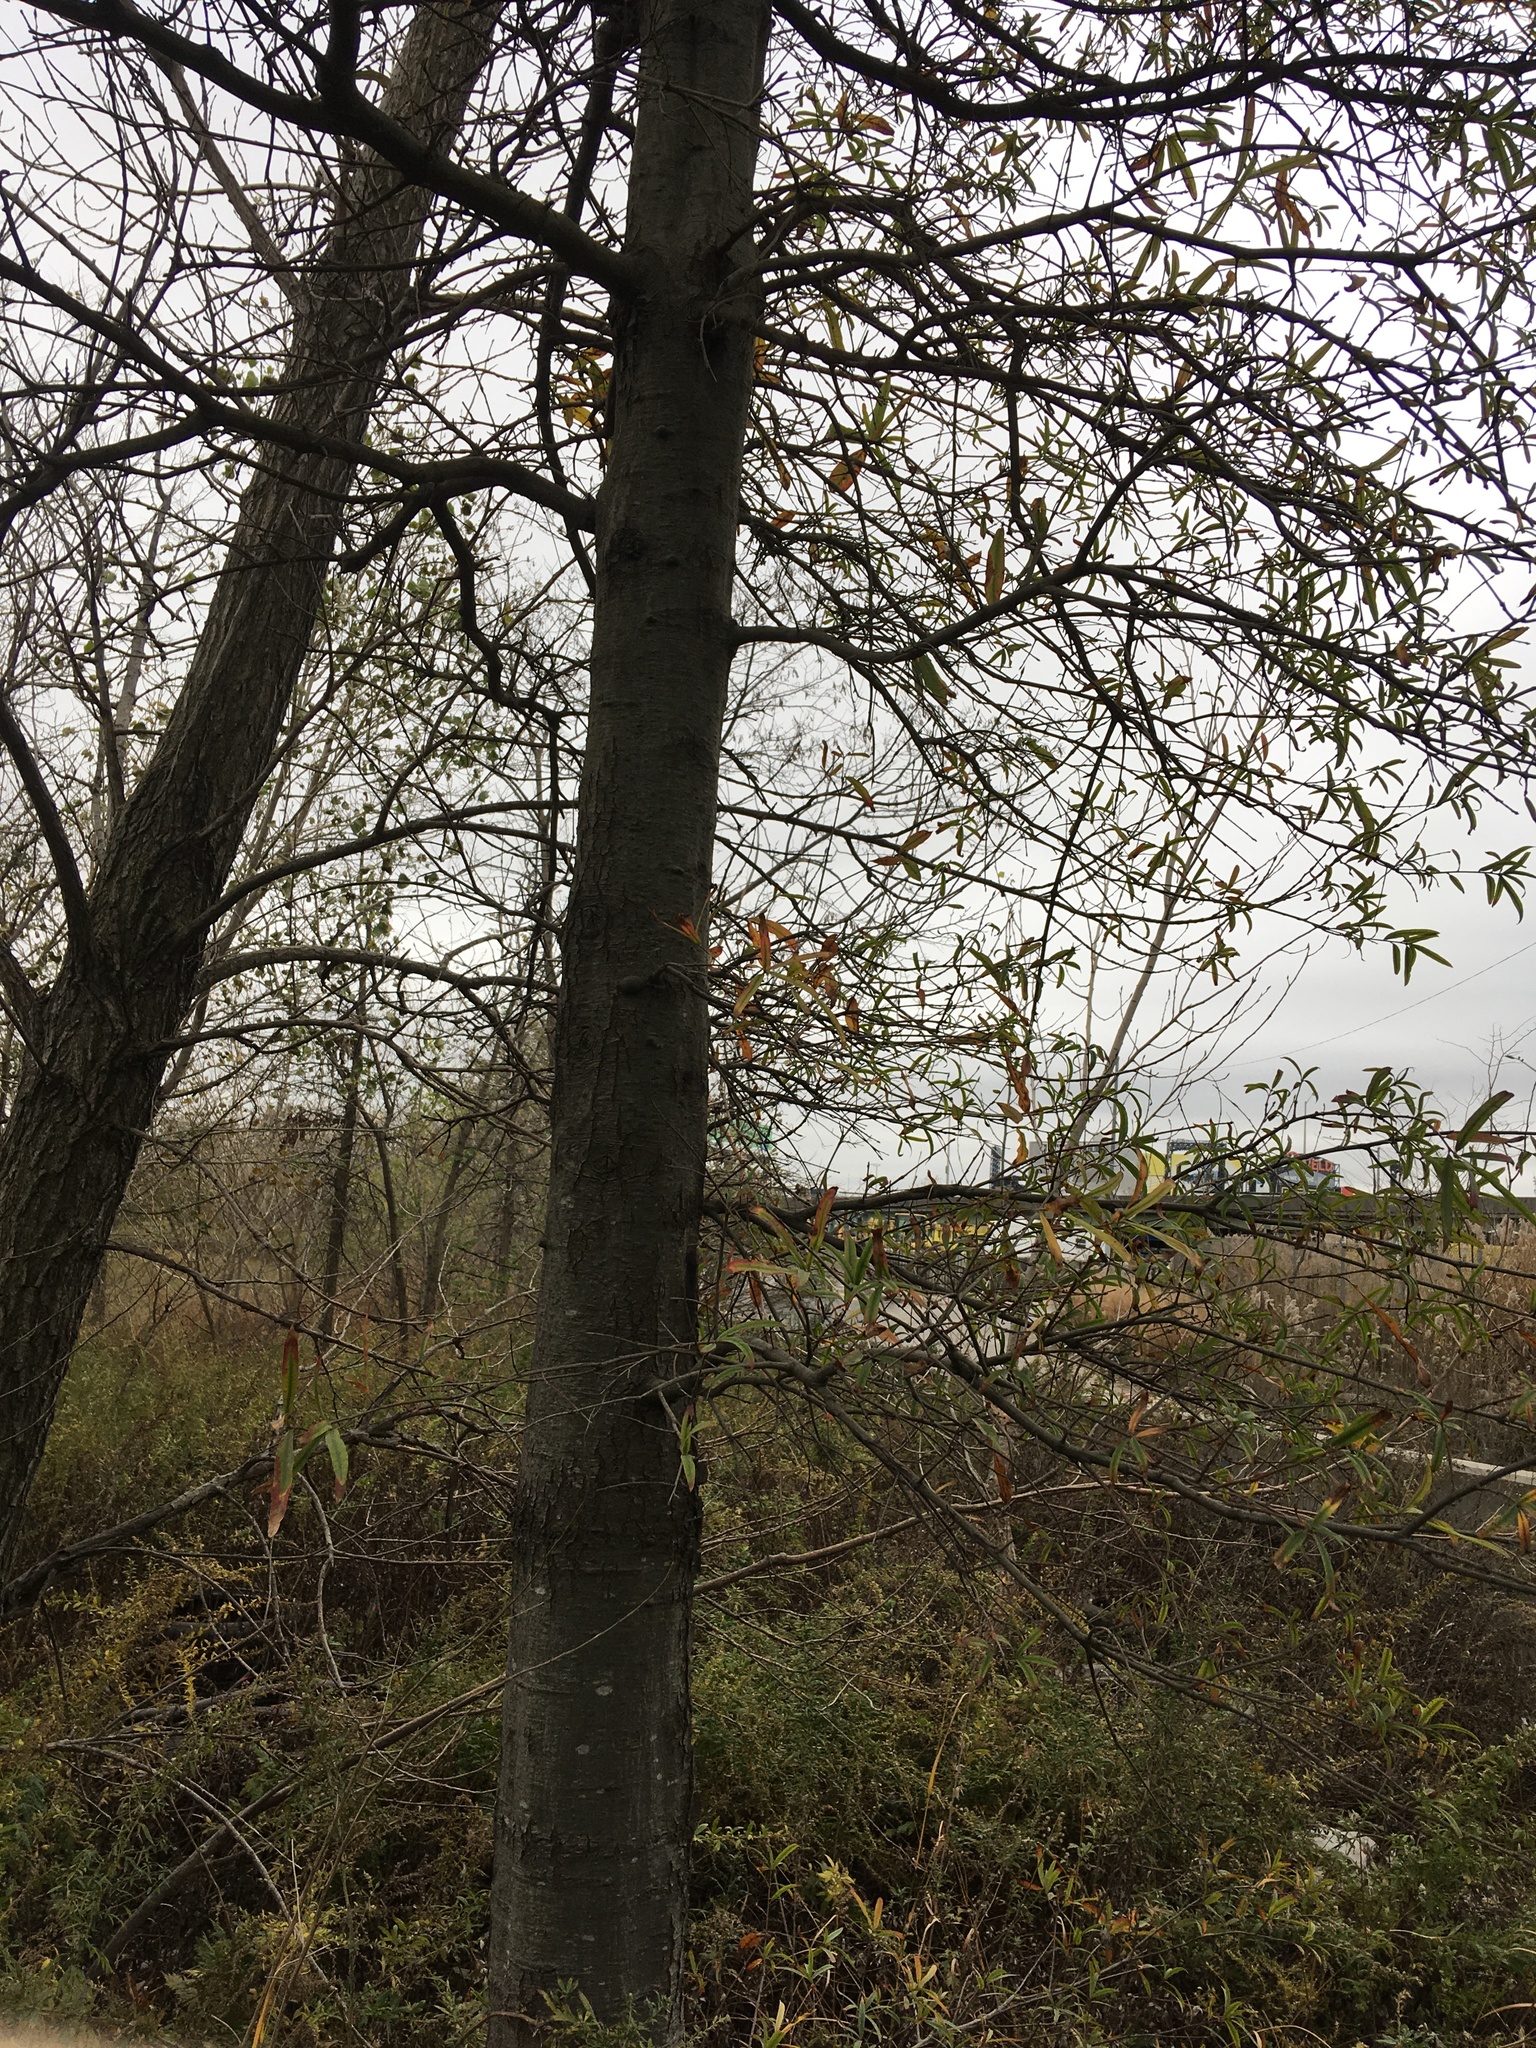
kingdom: Plantae
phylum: Tracheophyta
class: Magnoliopsida
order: Fagales
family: Fagaceae
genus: Quercus
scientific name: Quercus phellos
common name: Willow oak
